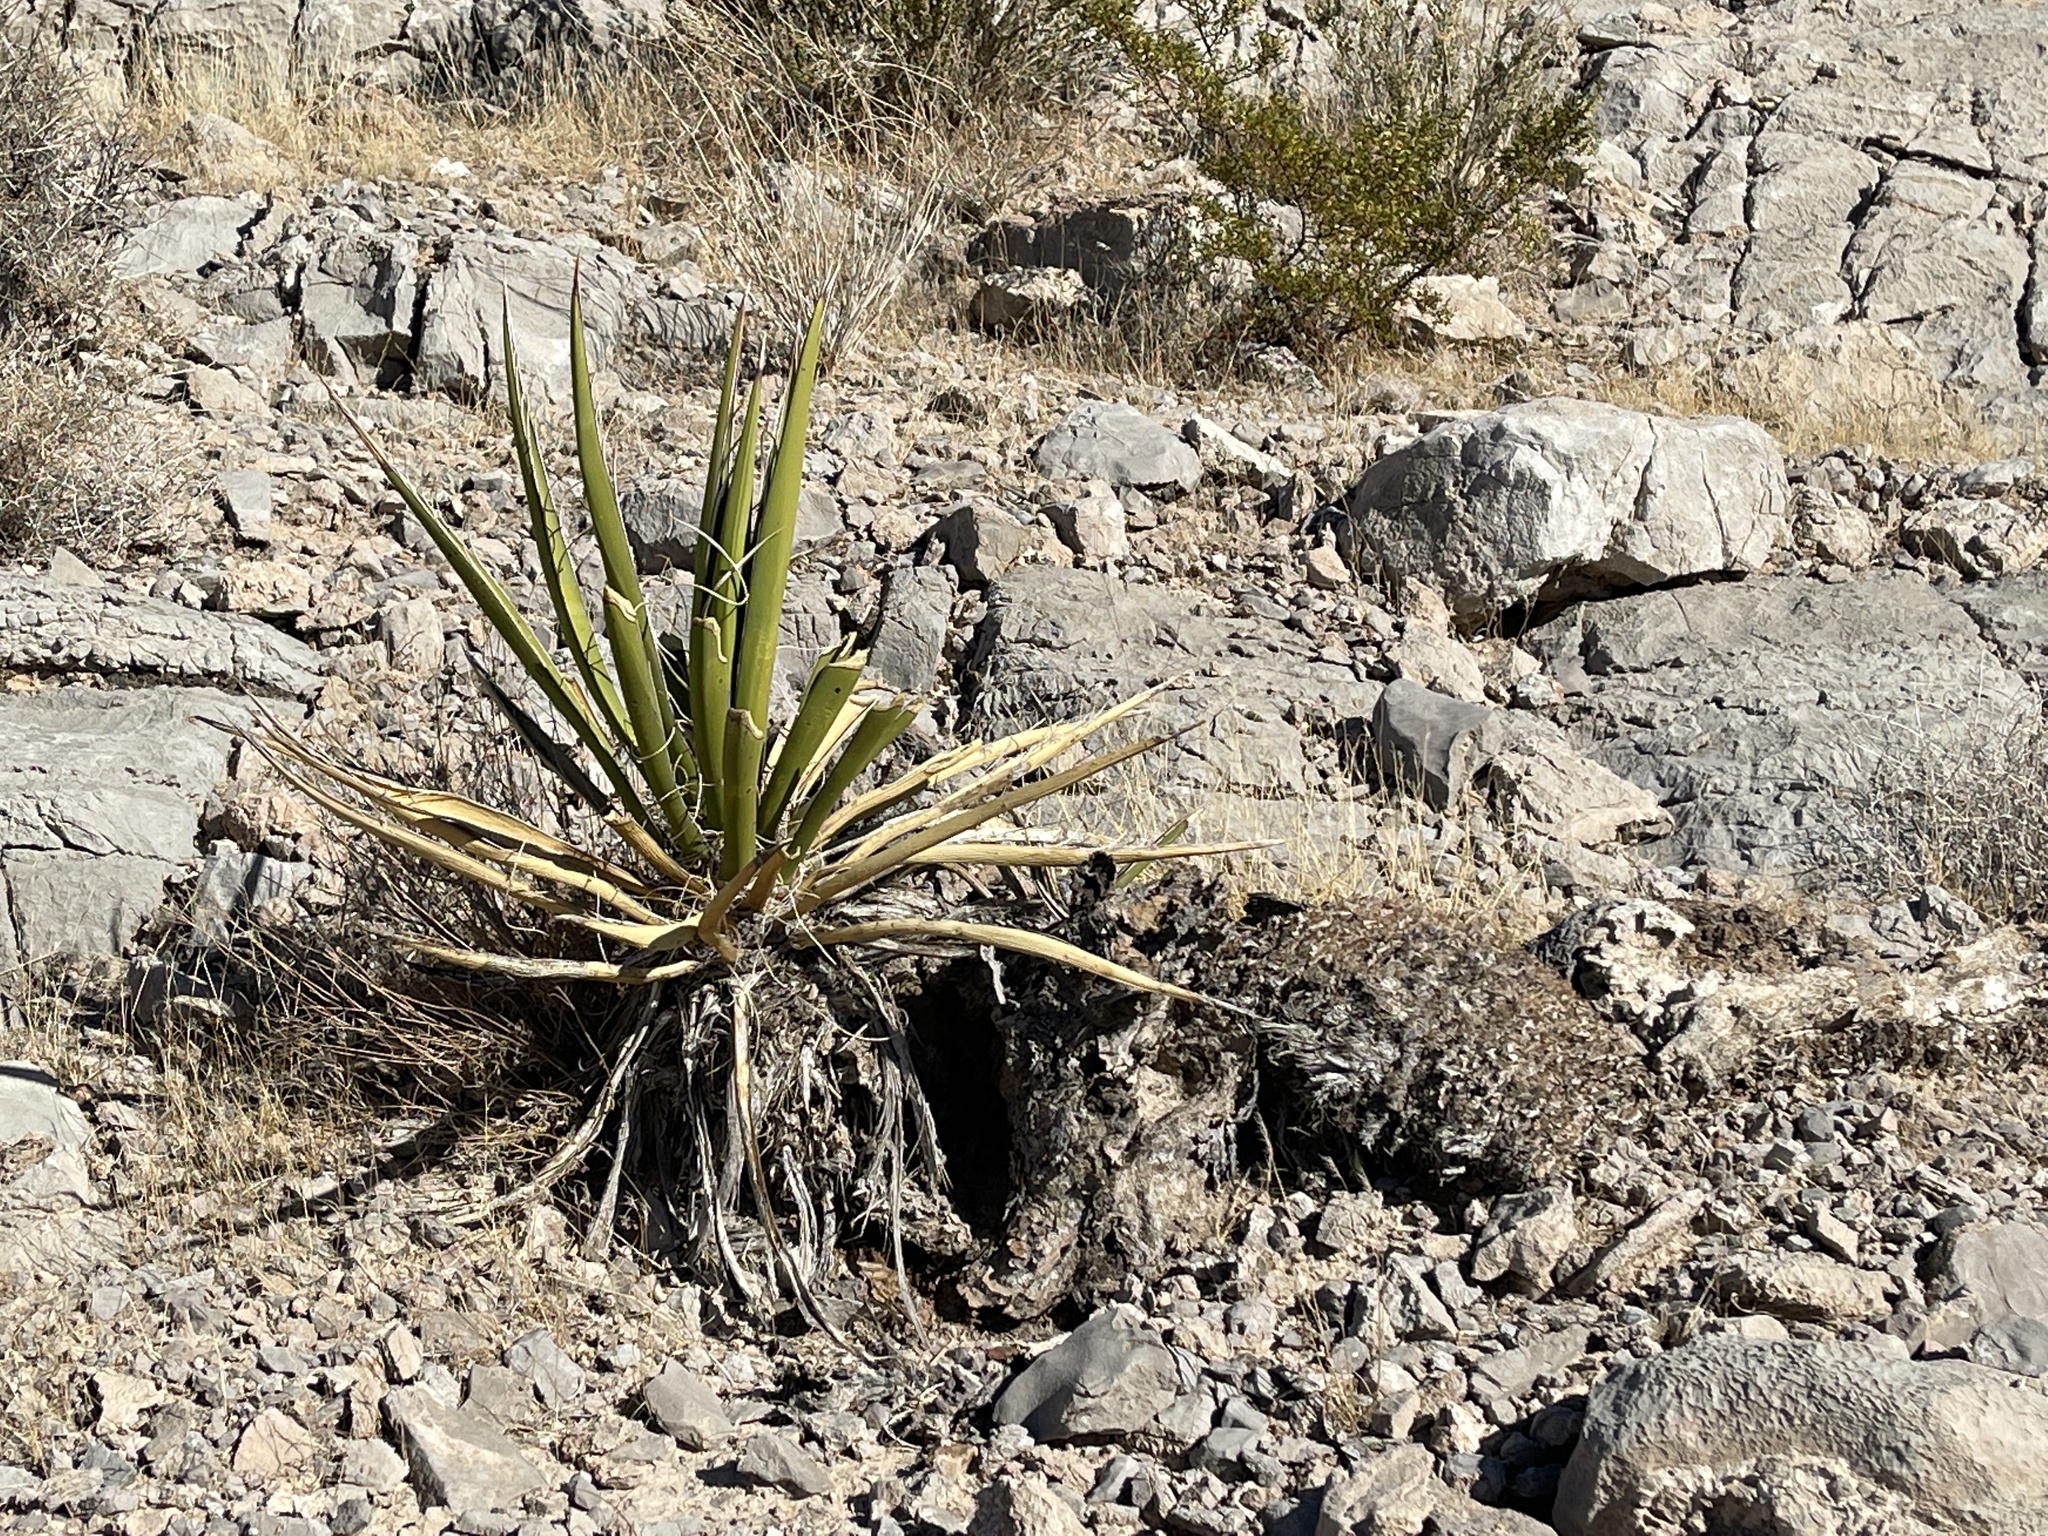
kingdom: Plantae
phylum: Tracheophyta
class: Liliopsida
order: Asparagales
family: Asparagaceae
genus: Yucca
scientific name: Yucca schidigera
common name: Mojave yucca
